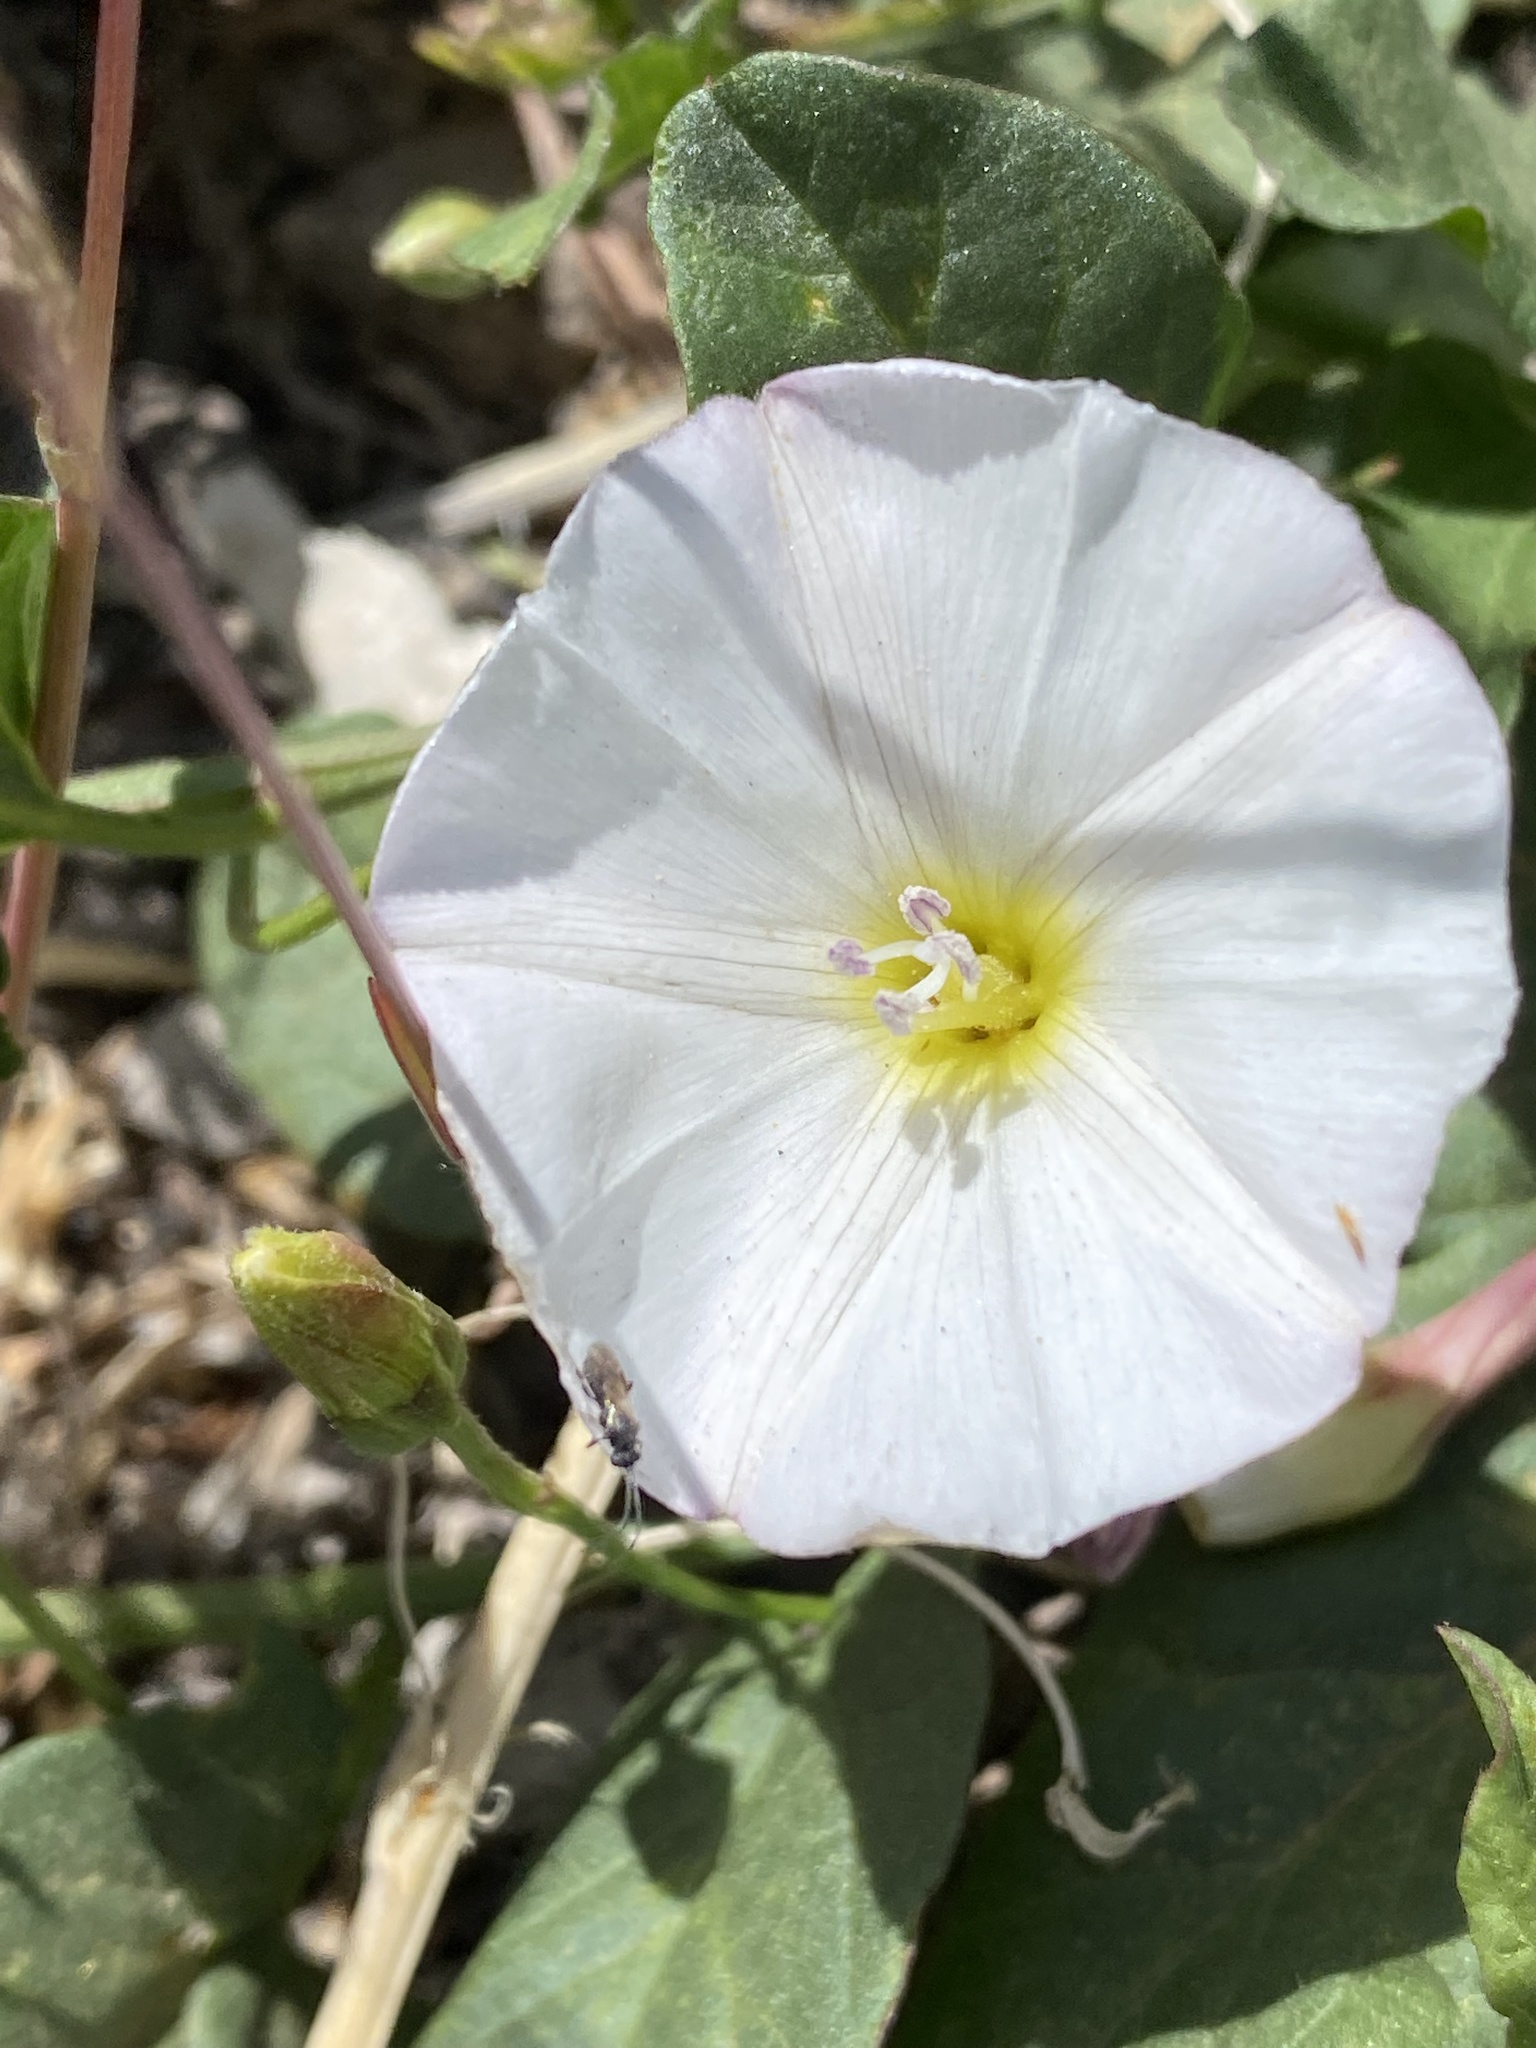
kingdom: Plantae
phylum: Tracheophyta
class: Magnoliopsida
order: Solanales
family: Convolvulaceae
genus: Convolvulus
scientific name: Convolvulus arvensis
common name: Field bindweed
